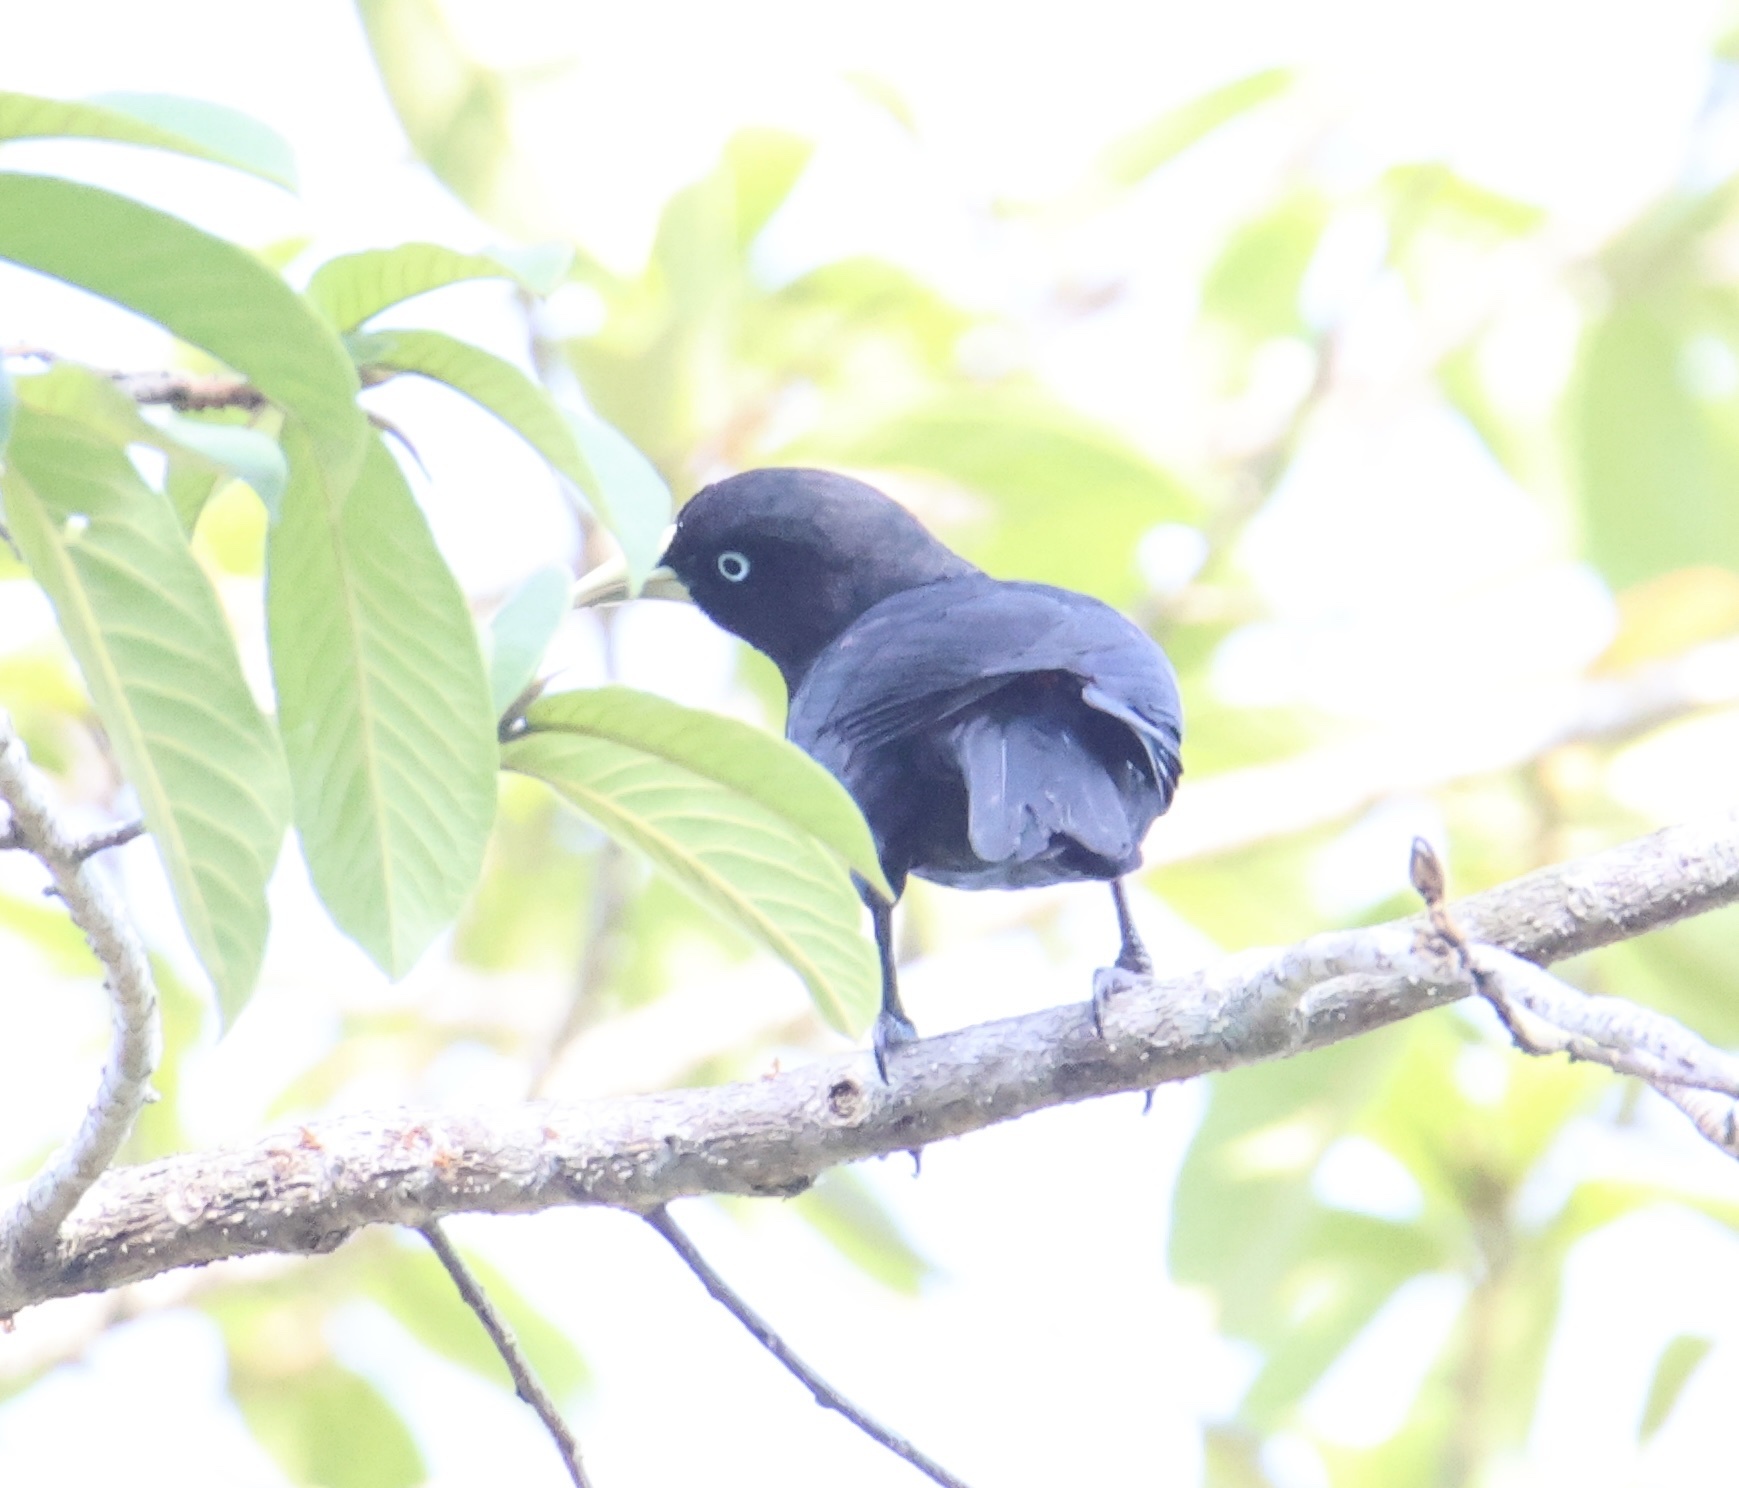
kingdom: Animalia
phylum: Chordata
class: Aves
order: Passeriformes
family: Icteridae
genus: Cacicus
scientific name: Cacicus uropygialis
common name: Scarlet-rumped cacique
